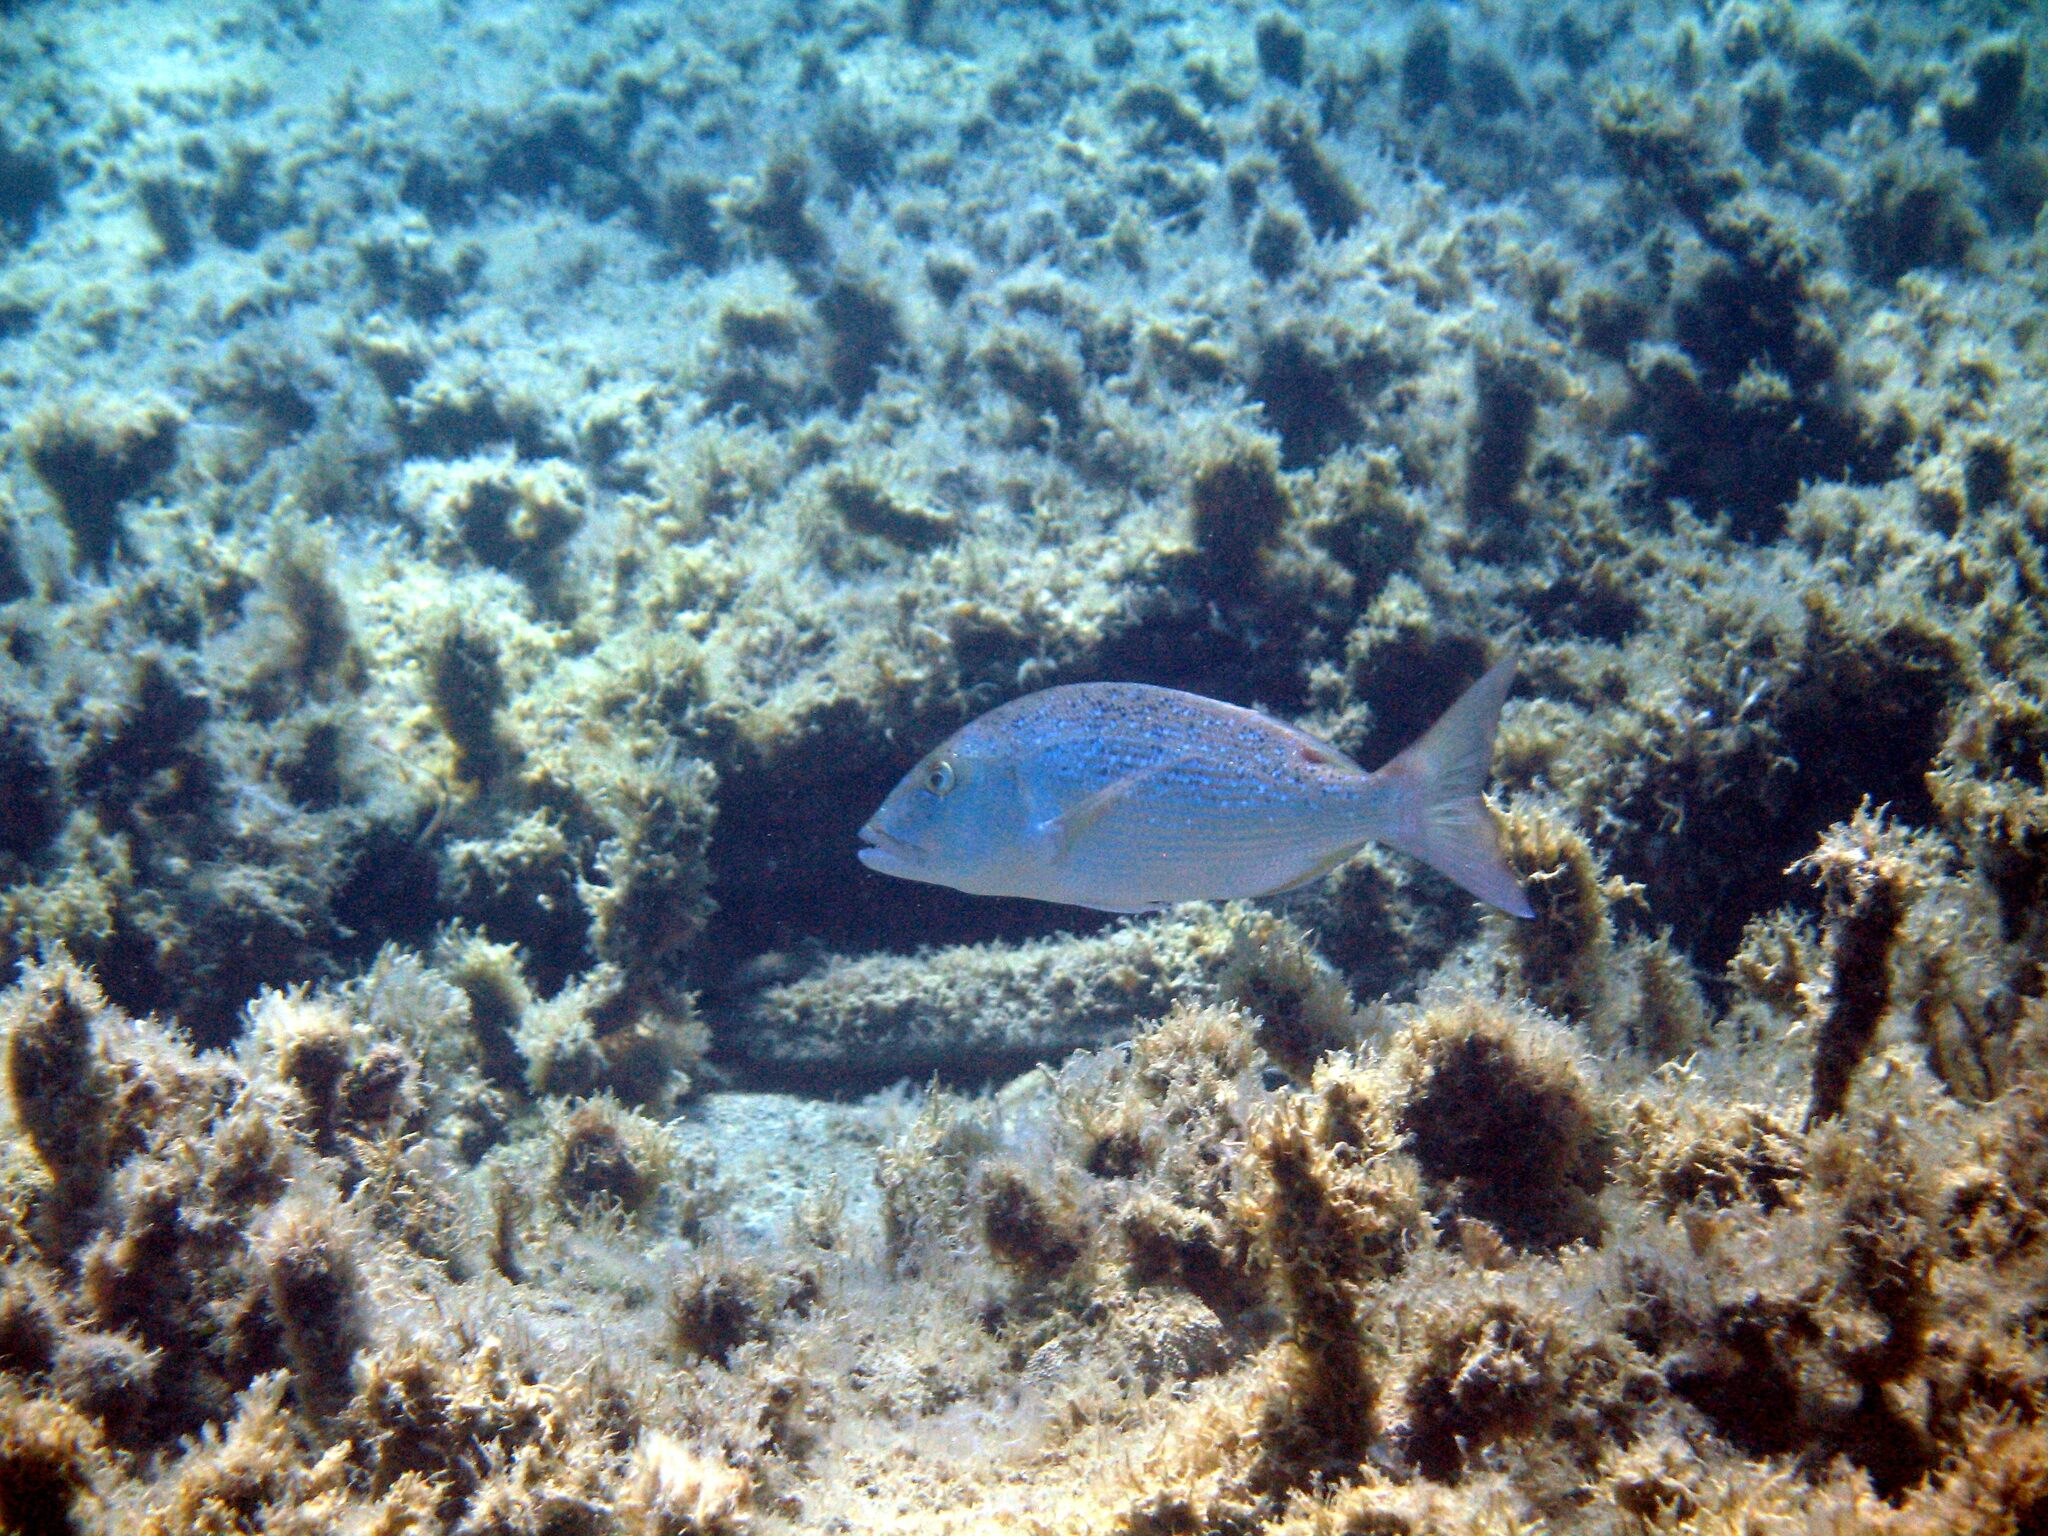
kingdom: Animalia
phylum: Chordata
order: Perciformes
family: Sparidae
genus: Dentex
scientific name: Dentex dentex
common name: Dentex
